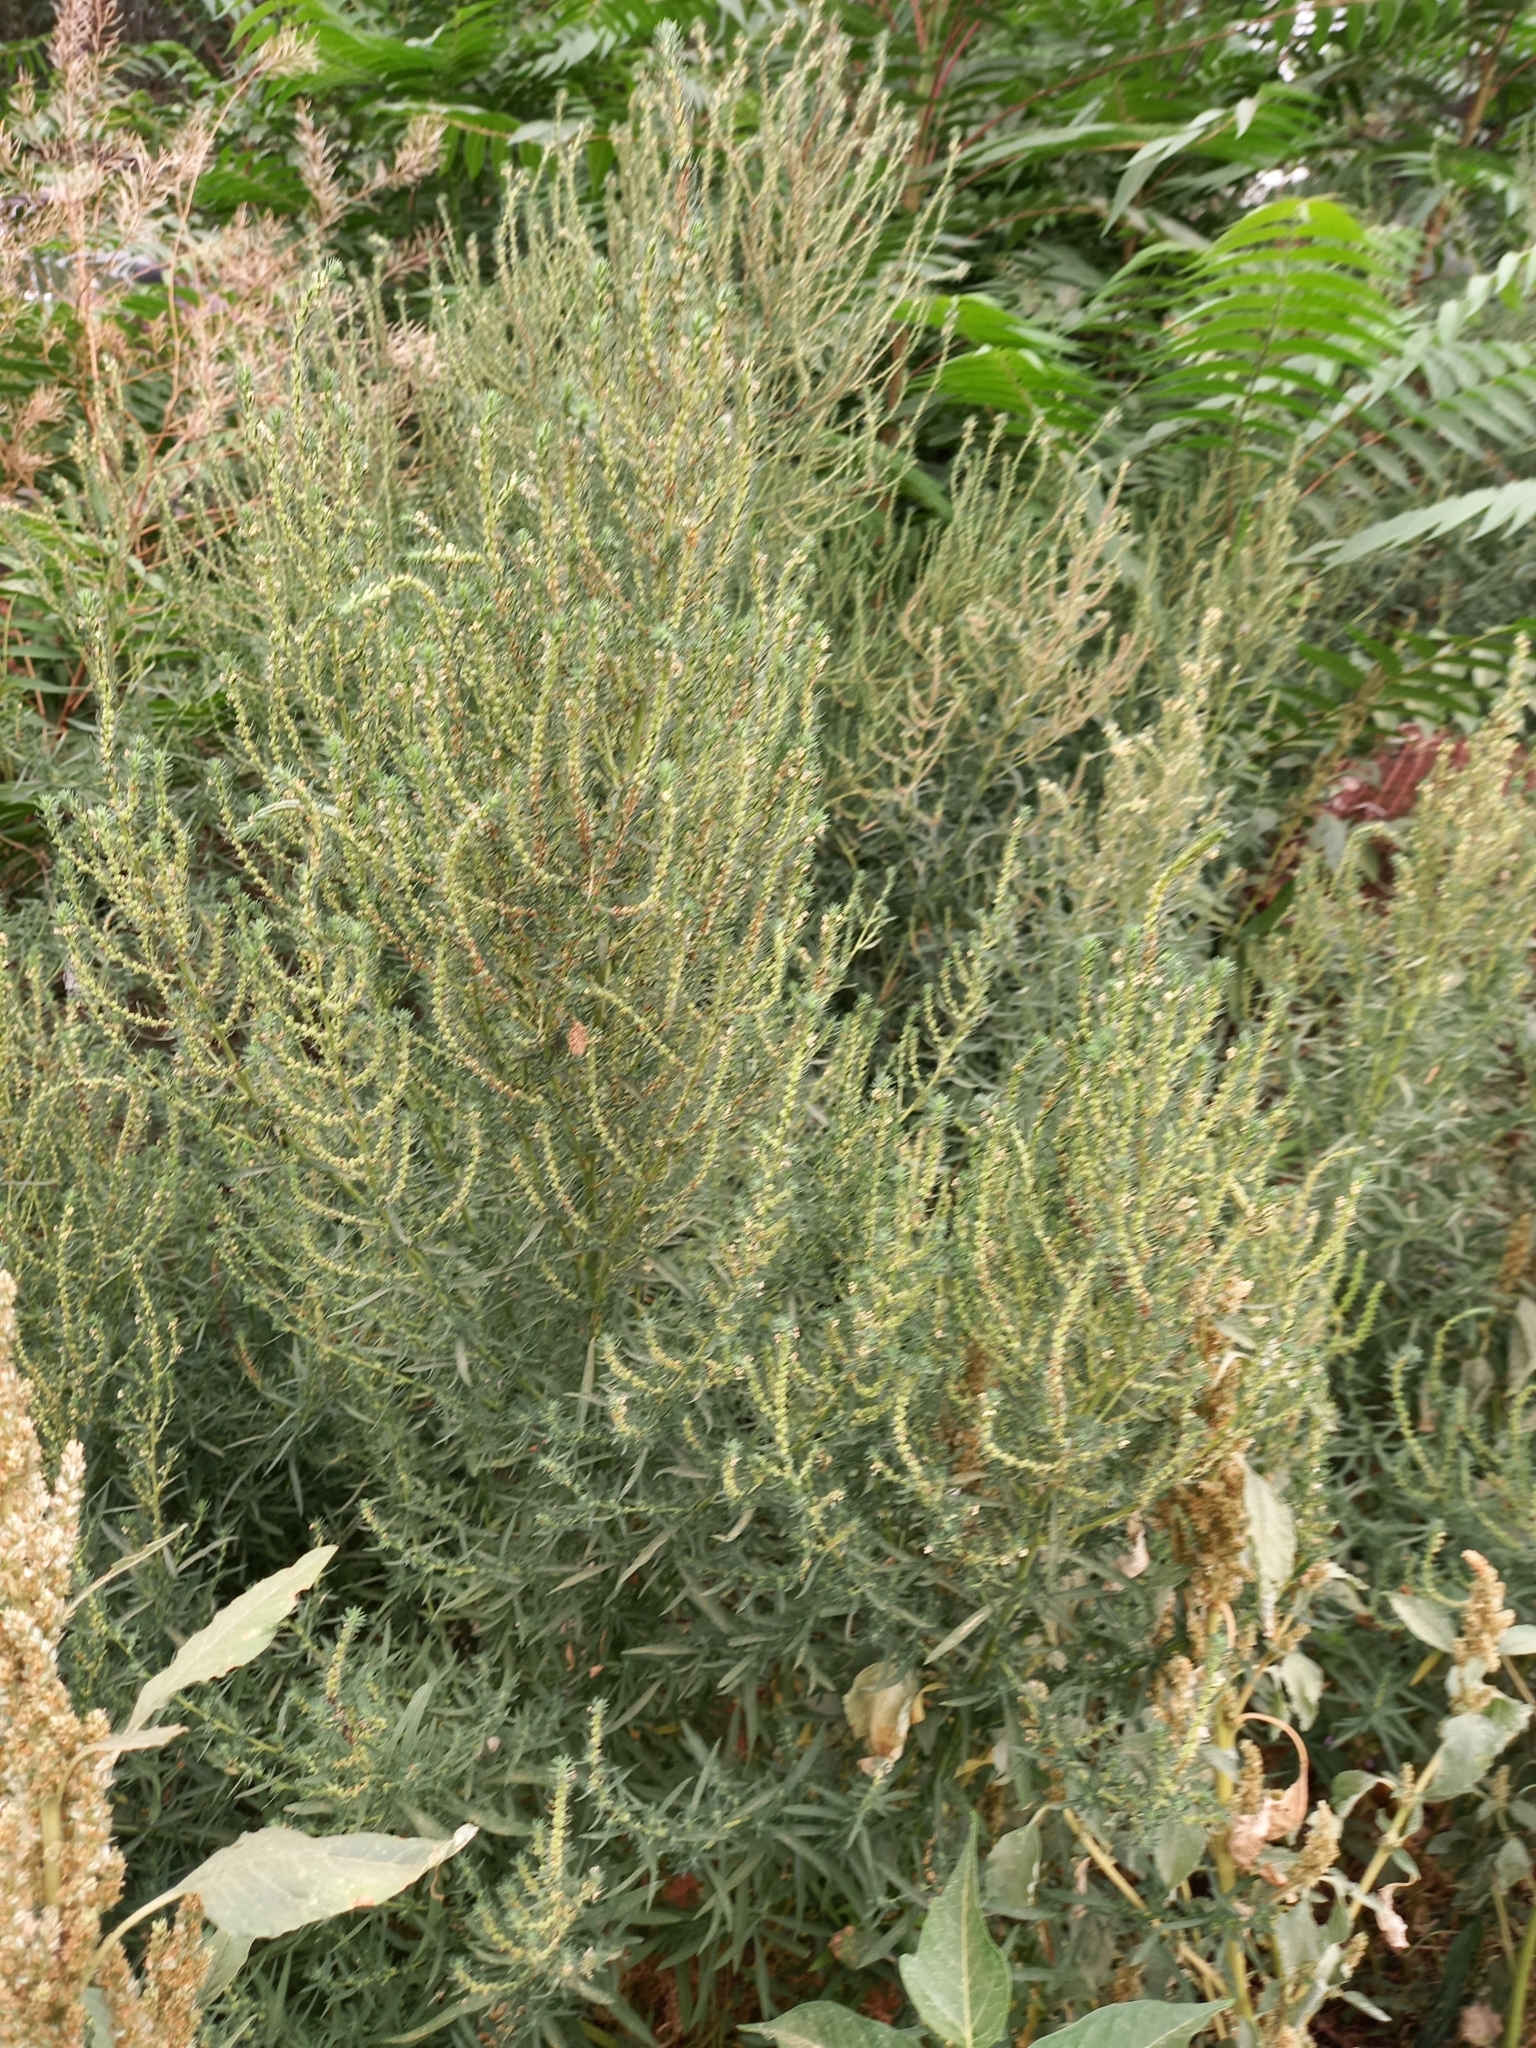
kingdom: Plantae
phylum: Tracheophyta
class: Magnoliopsida
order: Caryophyllales
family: Amaranthaceae
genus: Bassia
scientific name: Bassia scoparia
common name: Belvedere
